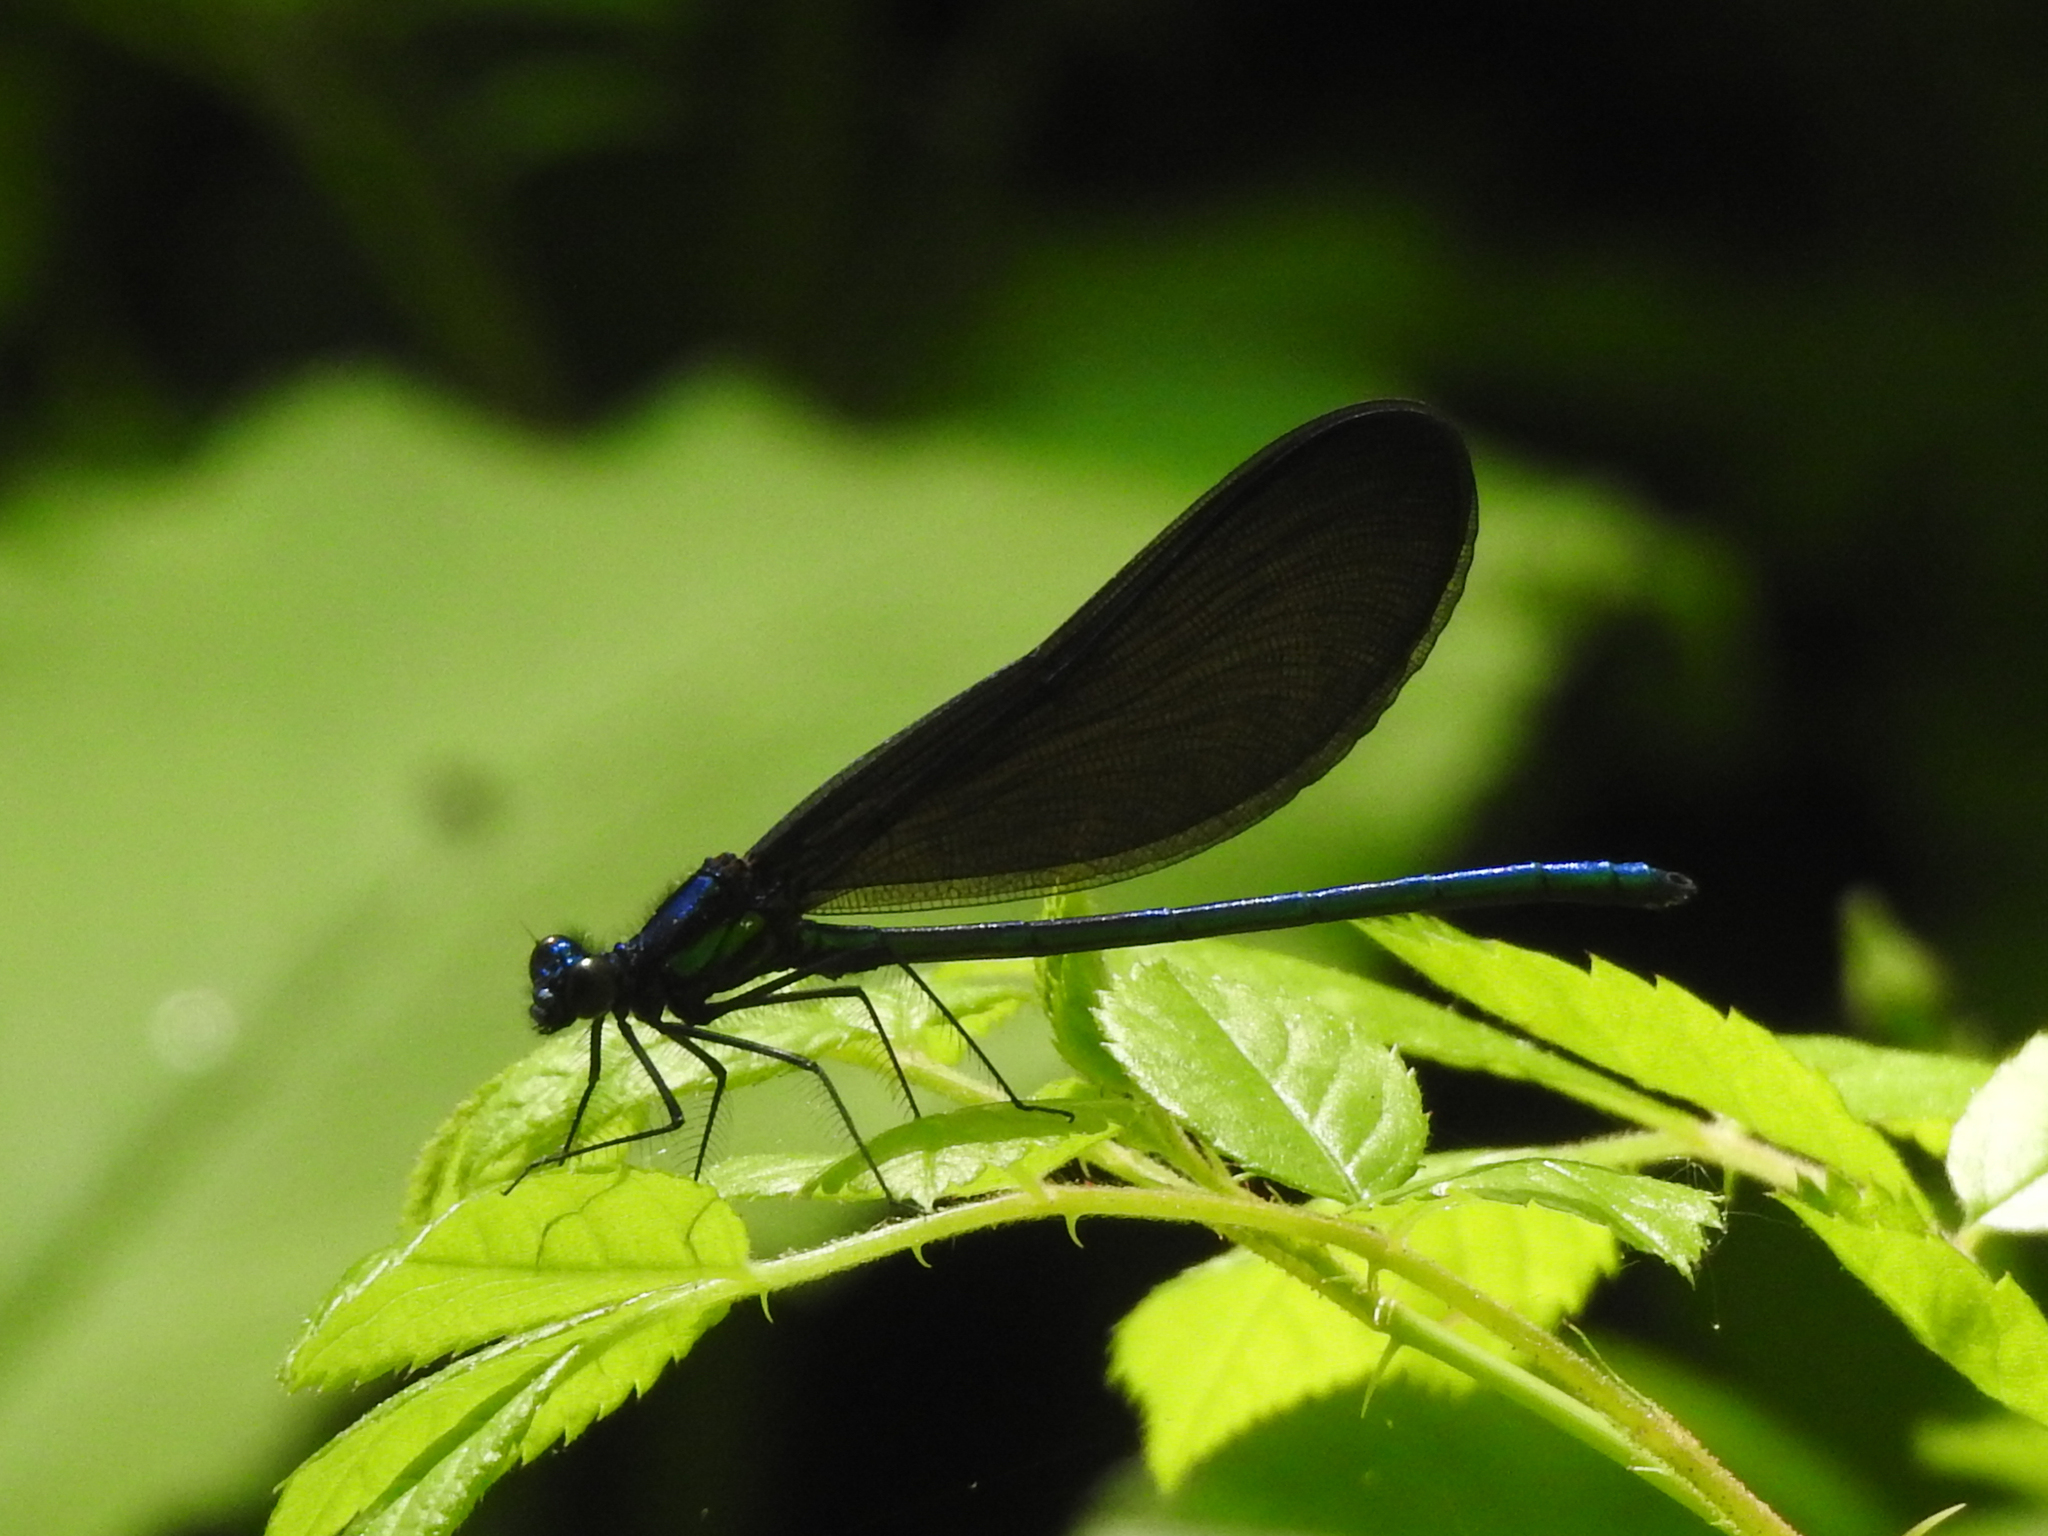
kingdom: Animalia
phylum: Arthropoda
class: Insecta
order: Odonata
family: Calopterygidae
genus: Calopteryx
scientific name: Calopteryx maculata
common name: Ebony jewelwing
